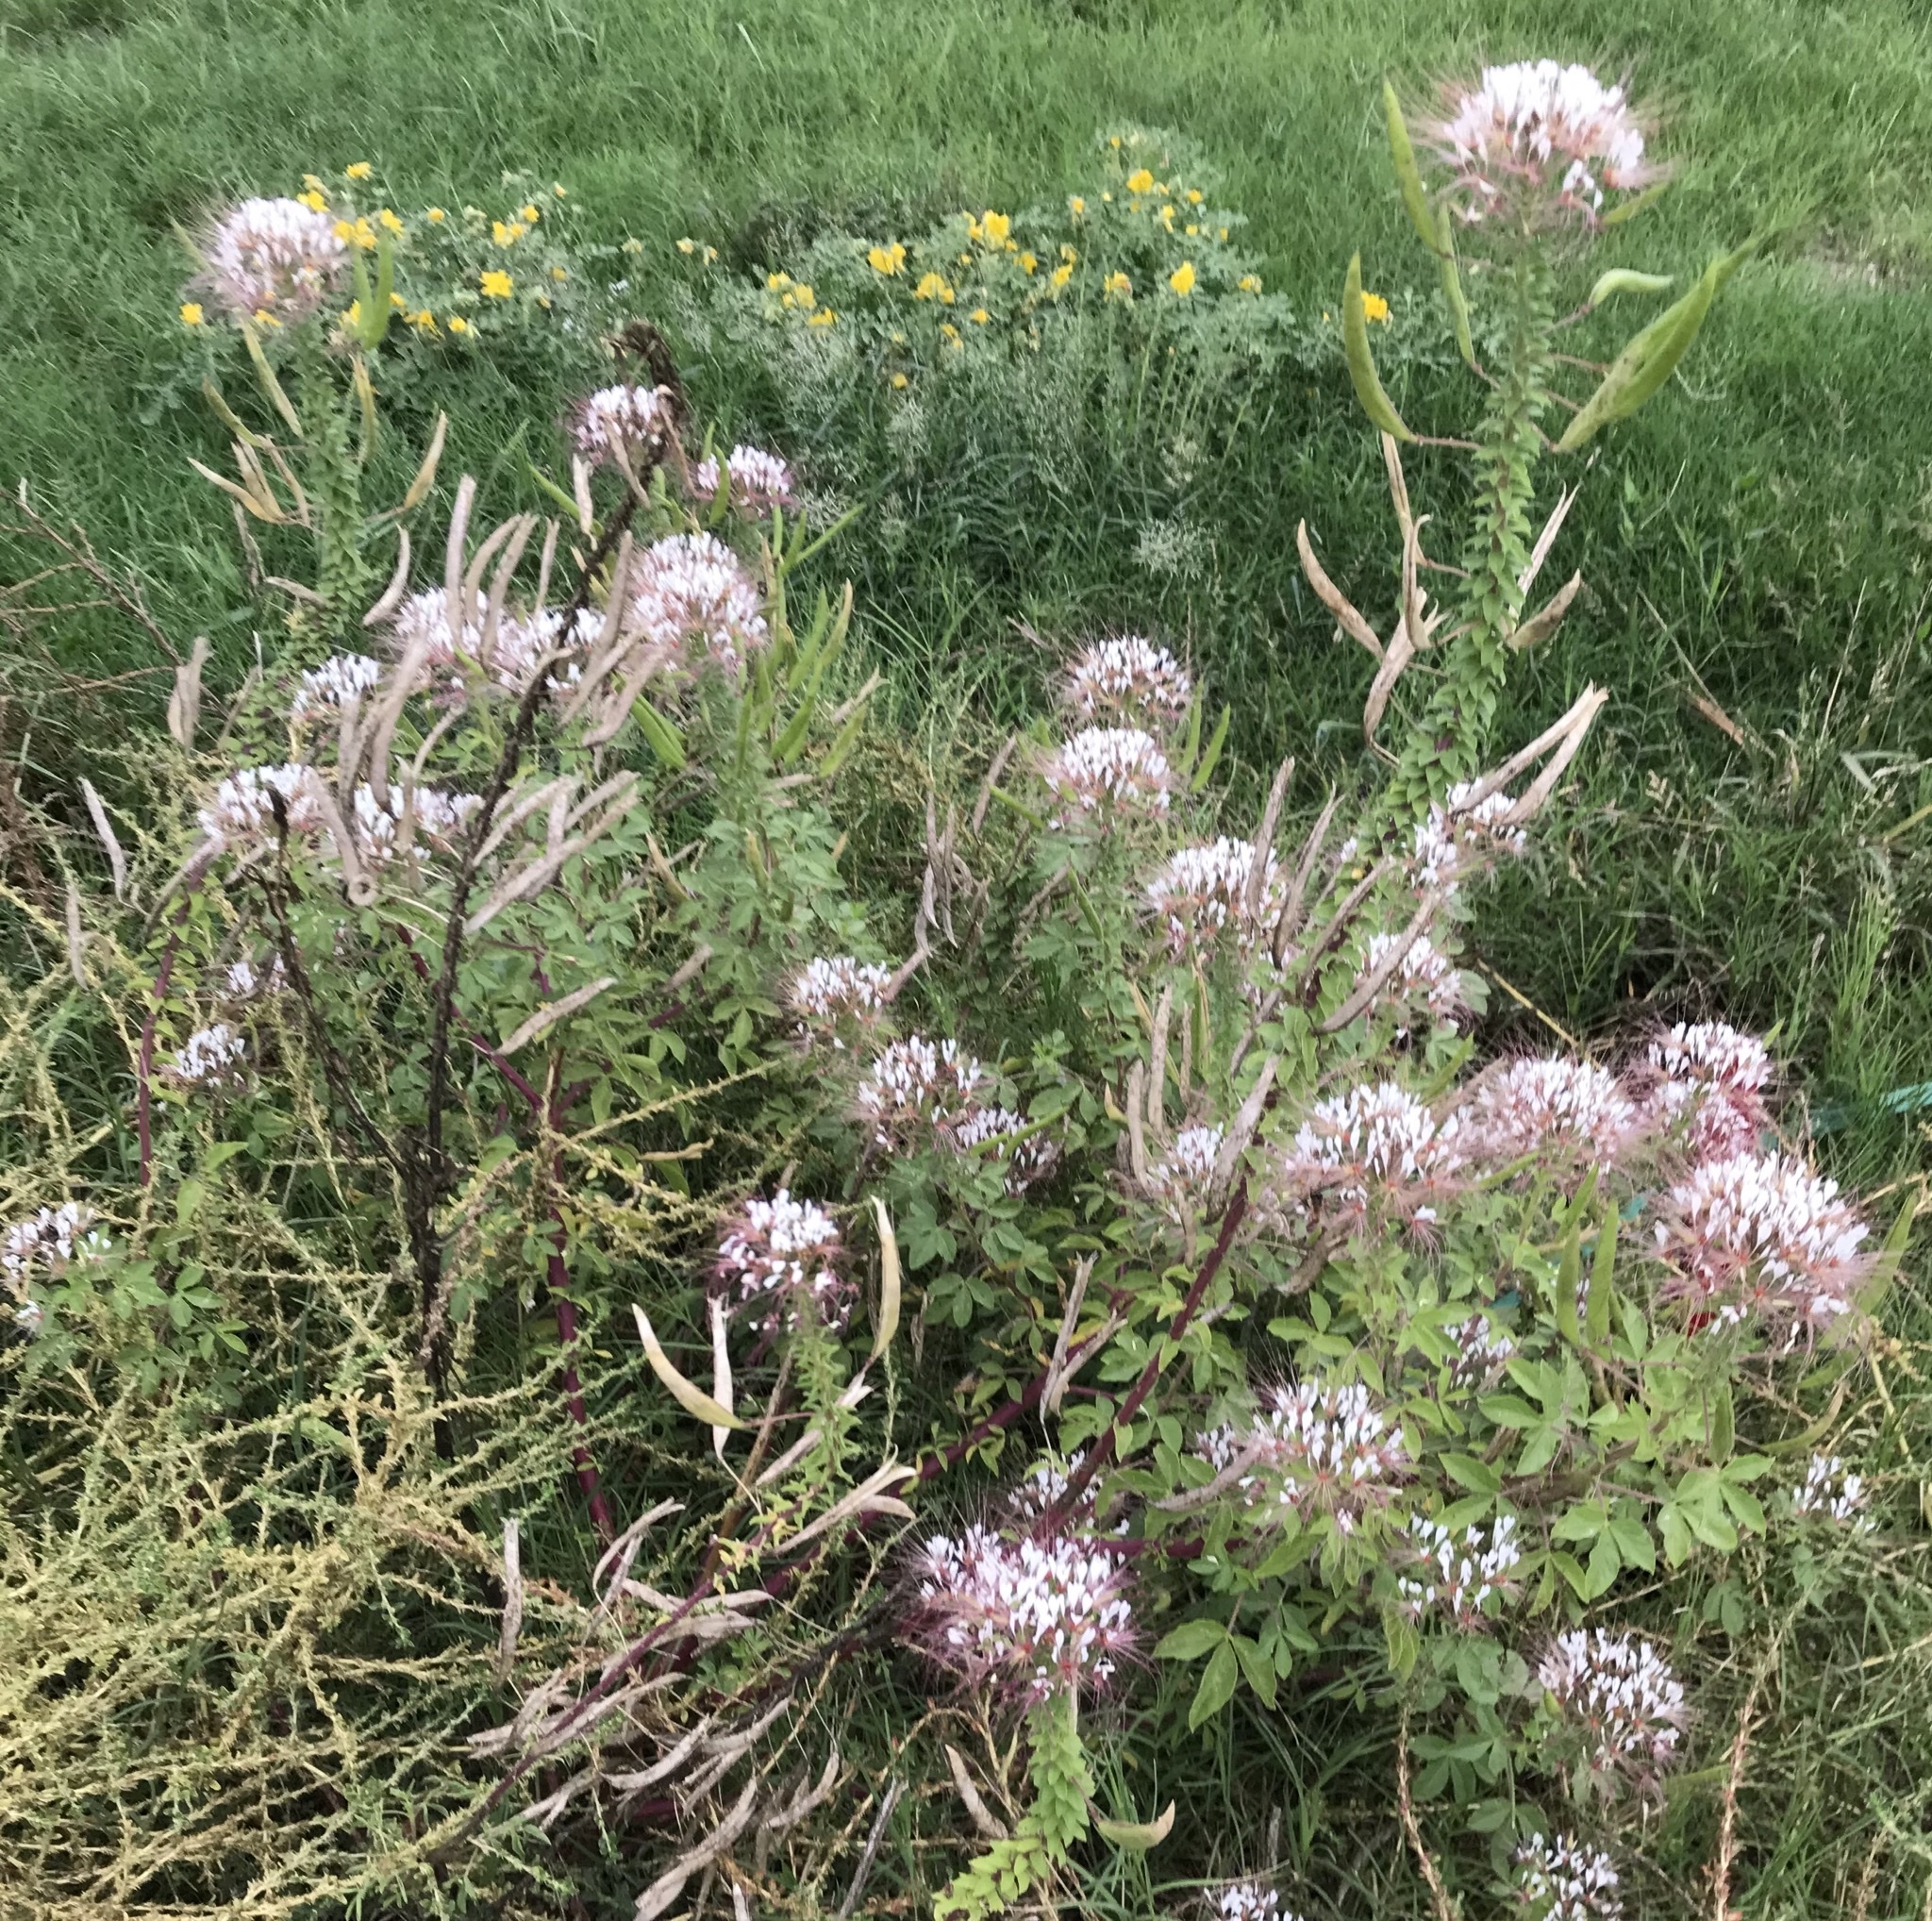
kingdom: Plantae
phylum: Tracheophyta
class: Magnoliopsida
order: Brassicales
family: Cleomaceae
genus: Polanisia
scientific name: Polanisia dodecandra
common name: Clammyweed
